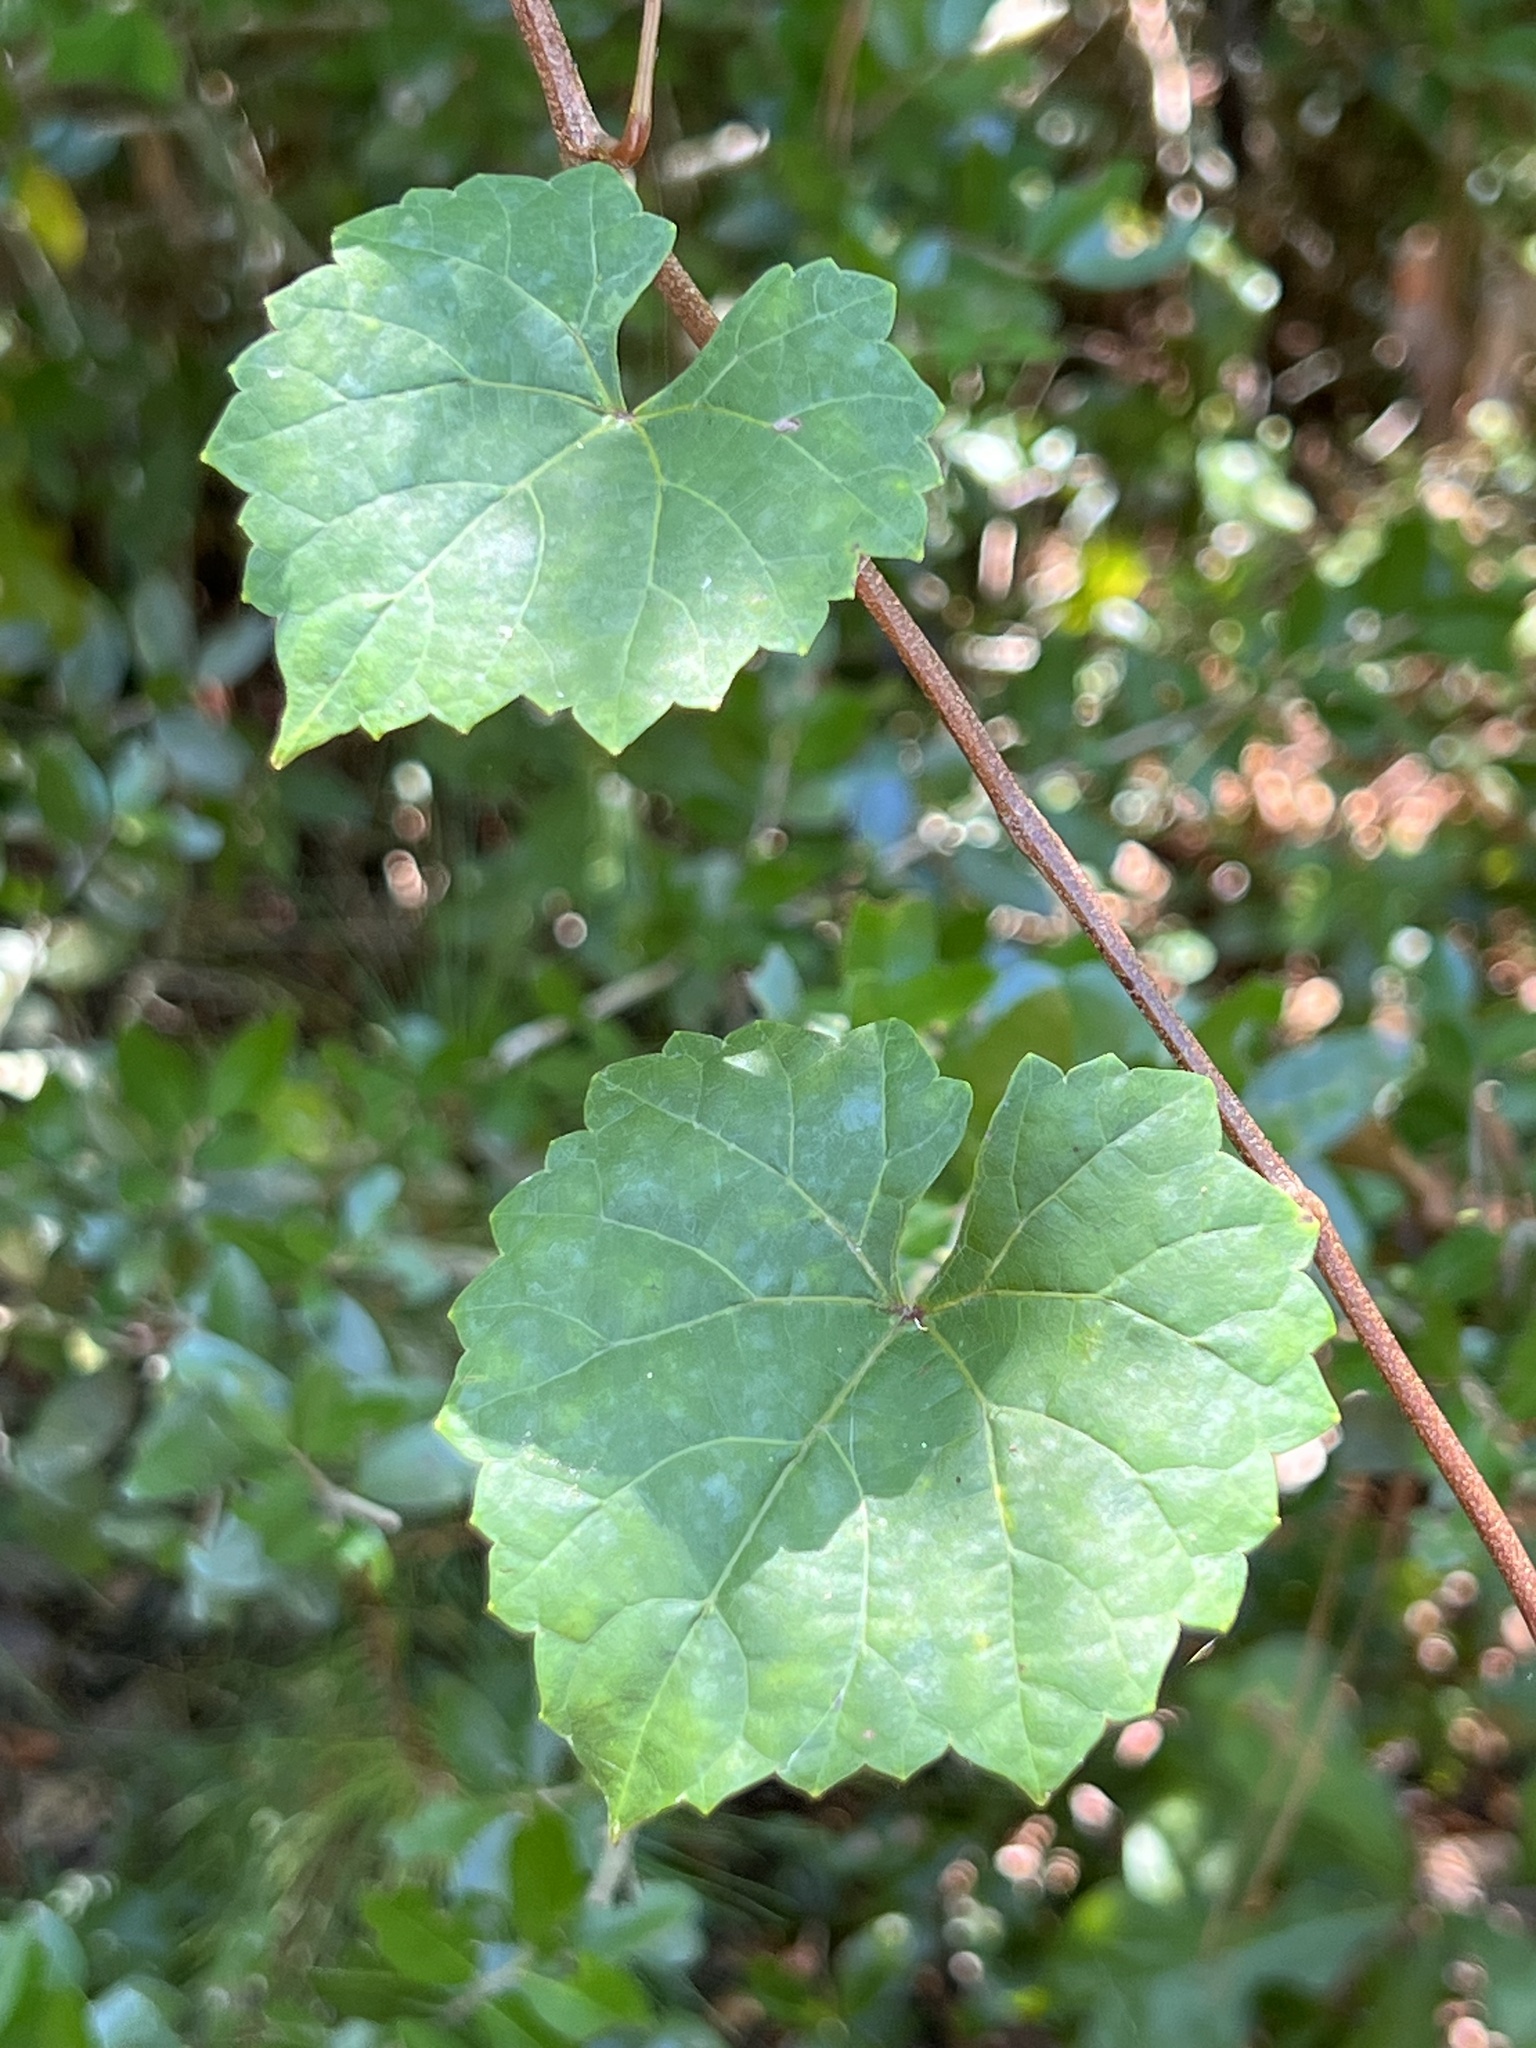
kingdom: Plantae
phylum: Tracheophyta
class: Magnoliopsida
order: Vitales
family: Vitaceae
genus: Vitis
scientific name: Vitis rotundifolia
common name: Muscadine grape
